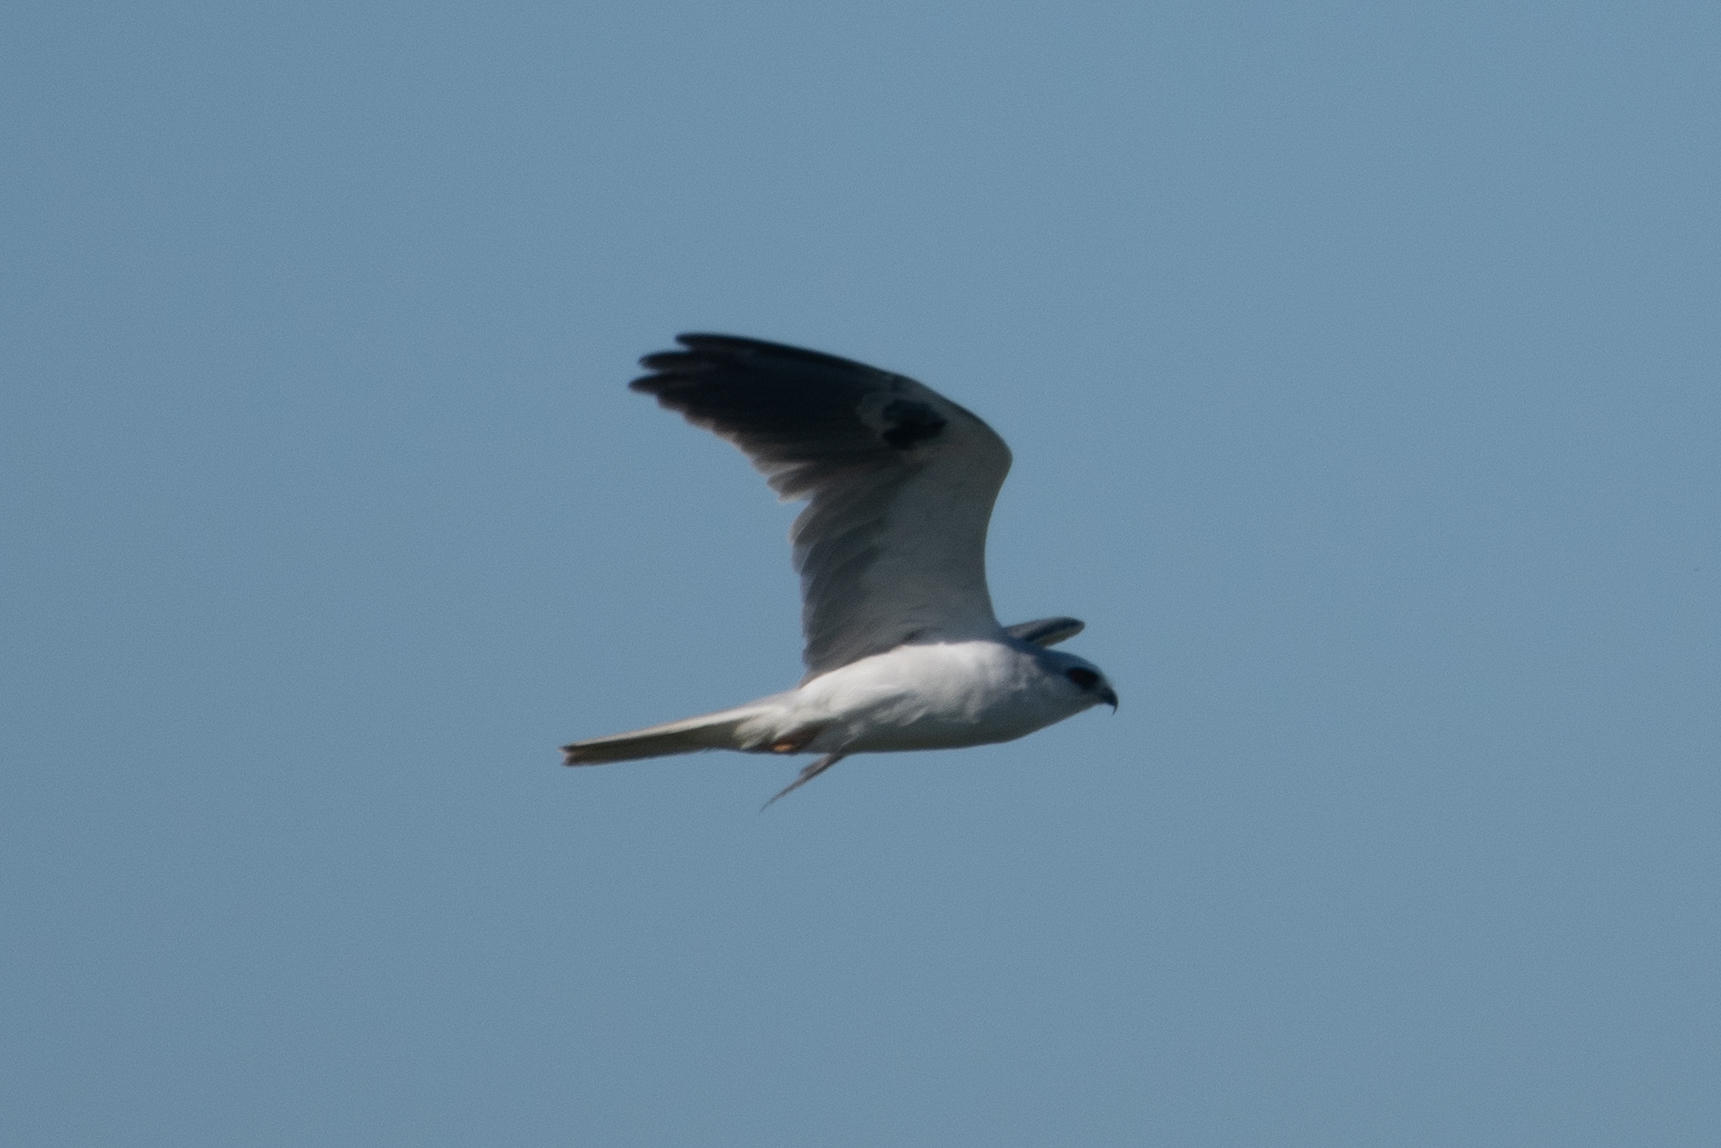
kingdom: Animalia
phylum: Chordata
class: Aves
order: Accipitriformes
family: Accipitridae
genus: Elanus
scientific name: Elanus leucurus
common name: White-tailed kite
